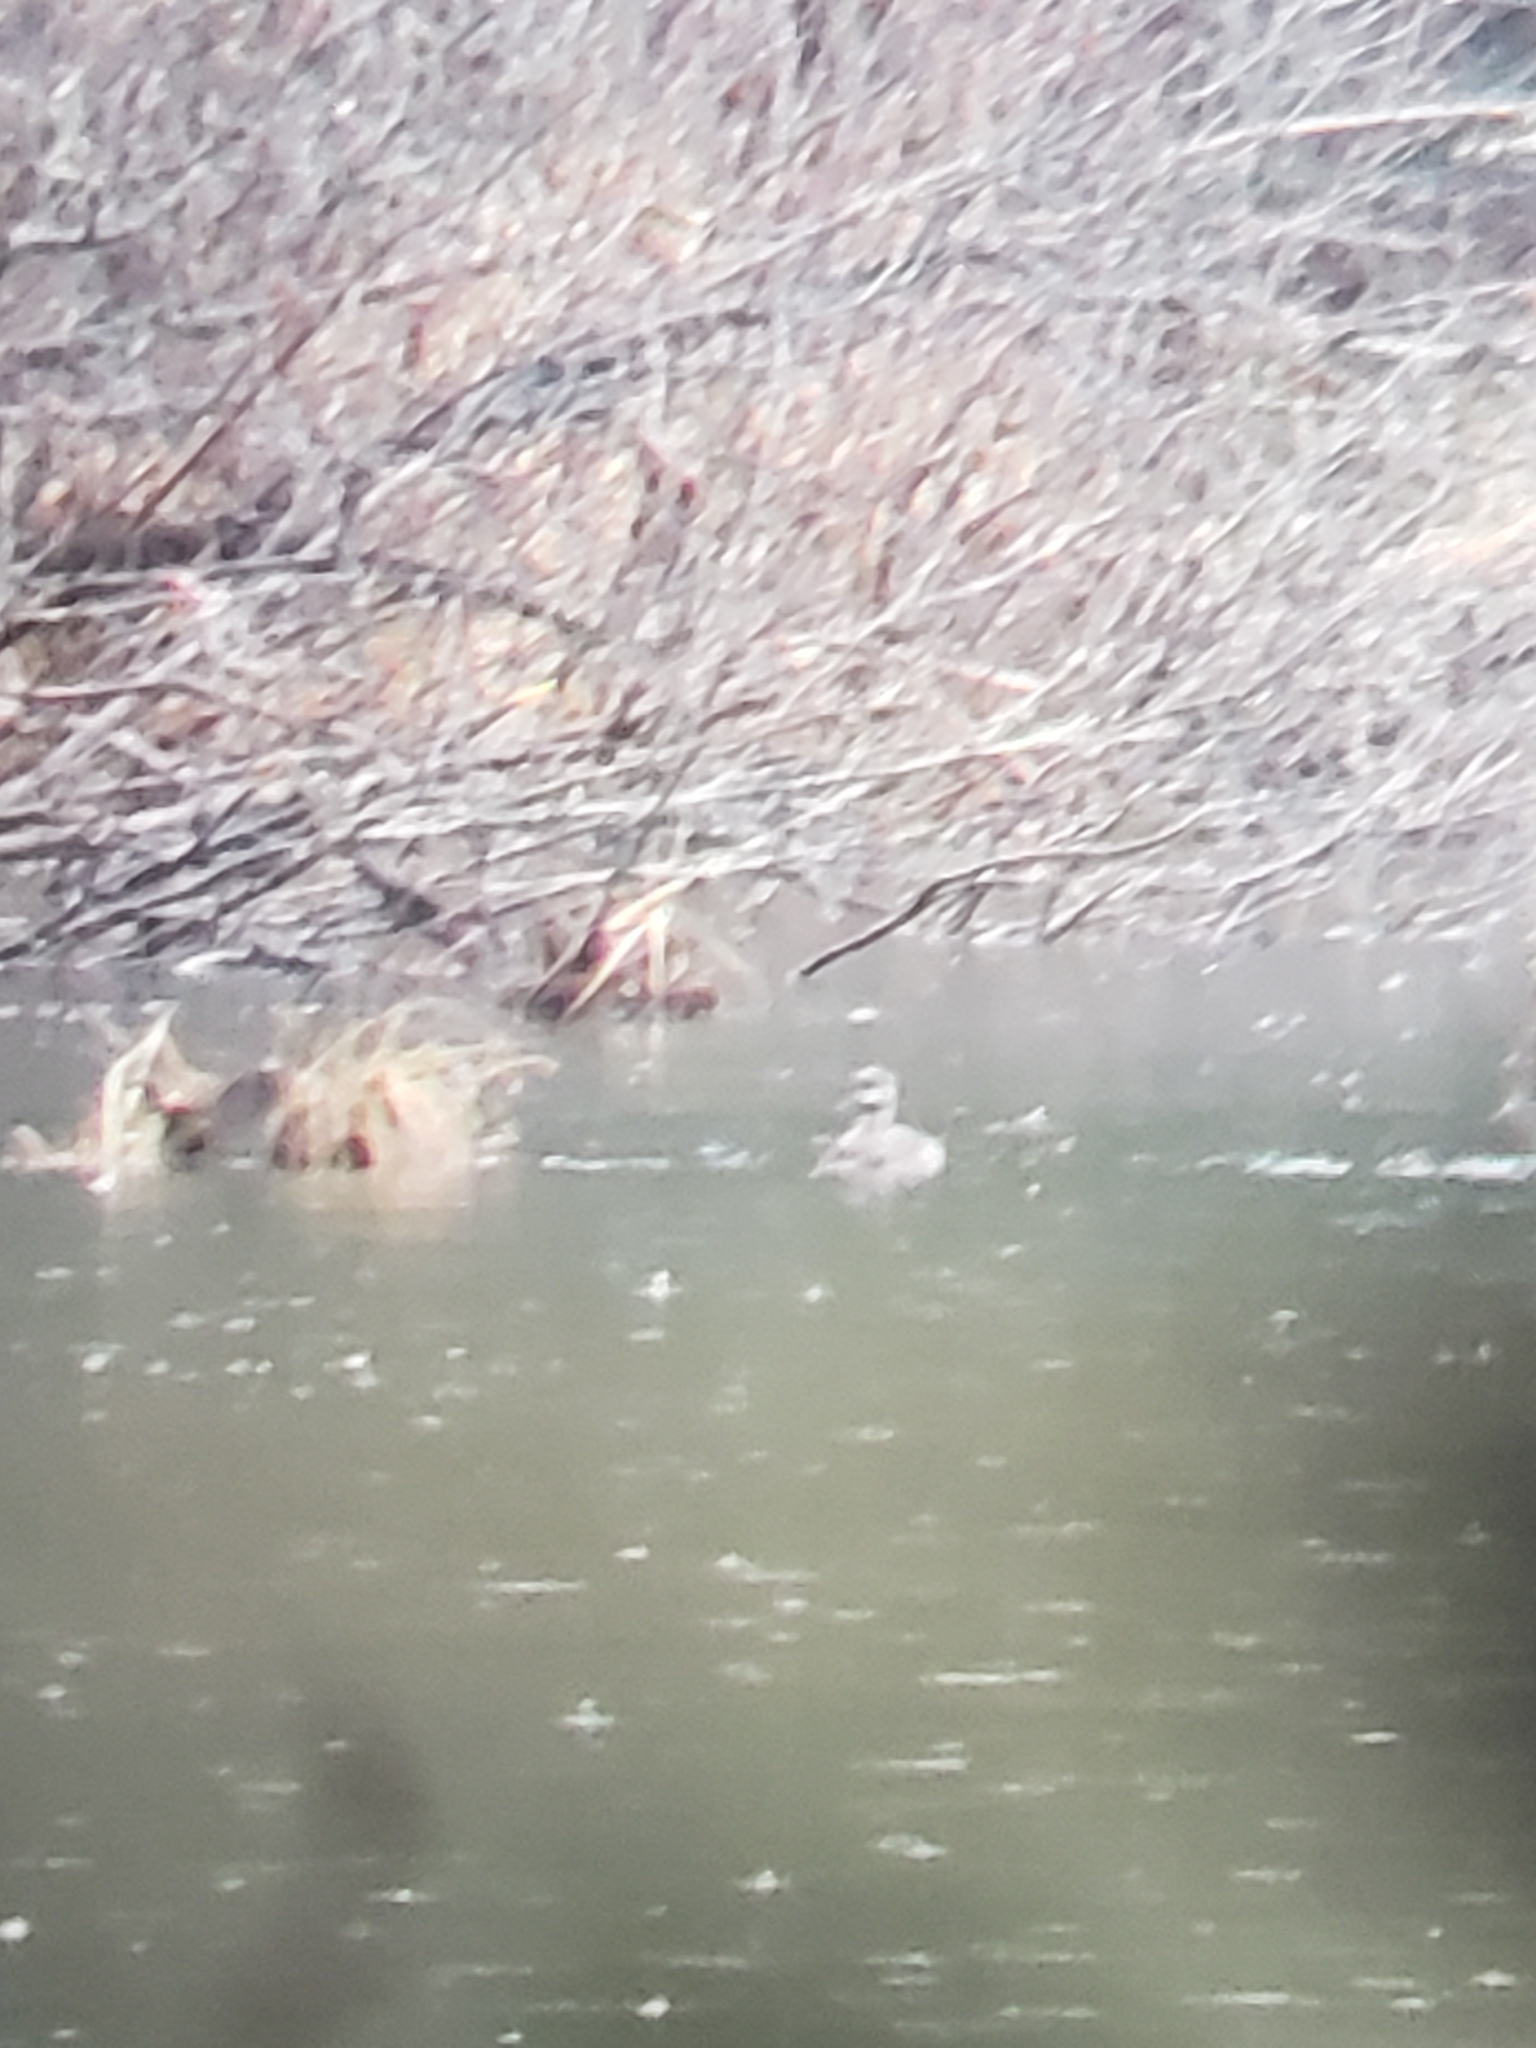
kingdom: Animalia
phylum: Chordata
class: Aves
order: Podicipediformes
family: Podicipedidae
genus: Podilymbus
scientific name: Podilymbus podiceps
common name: Pied-billed grebe
